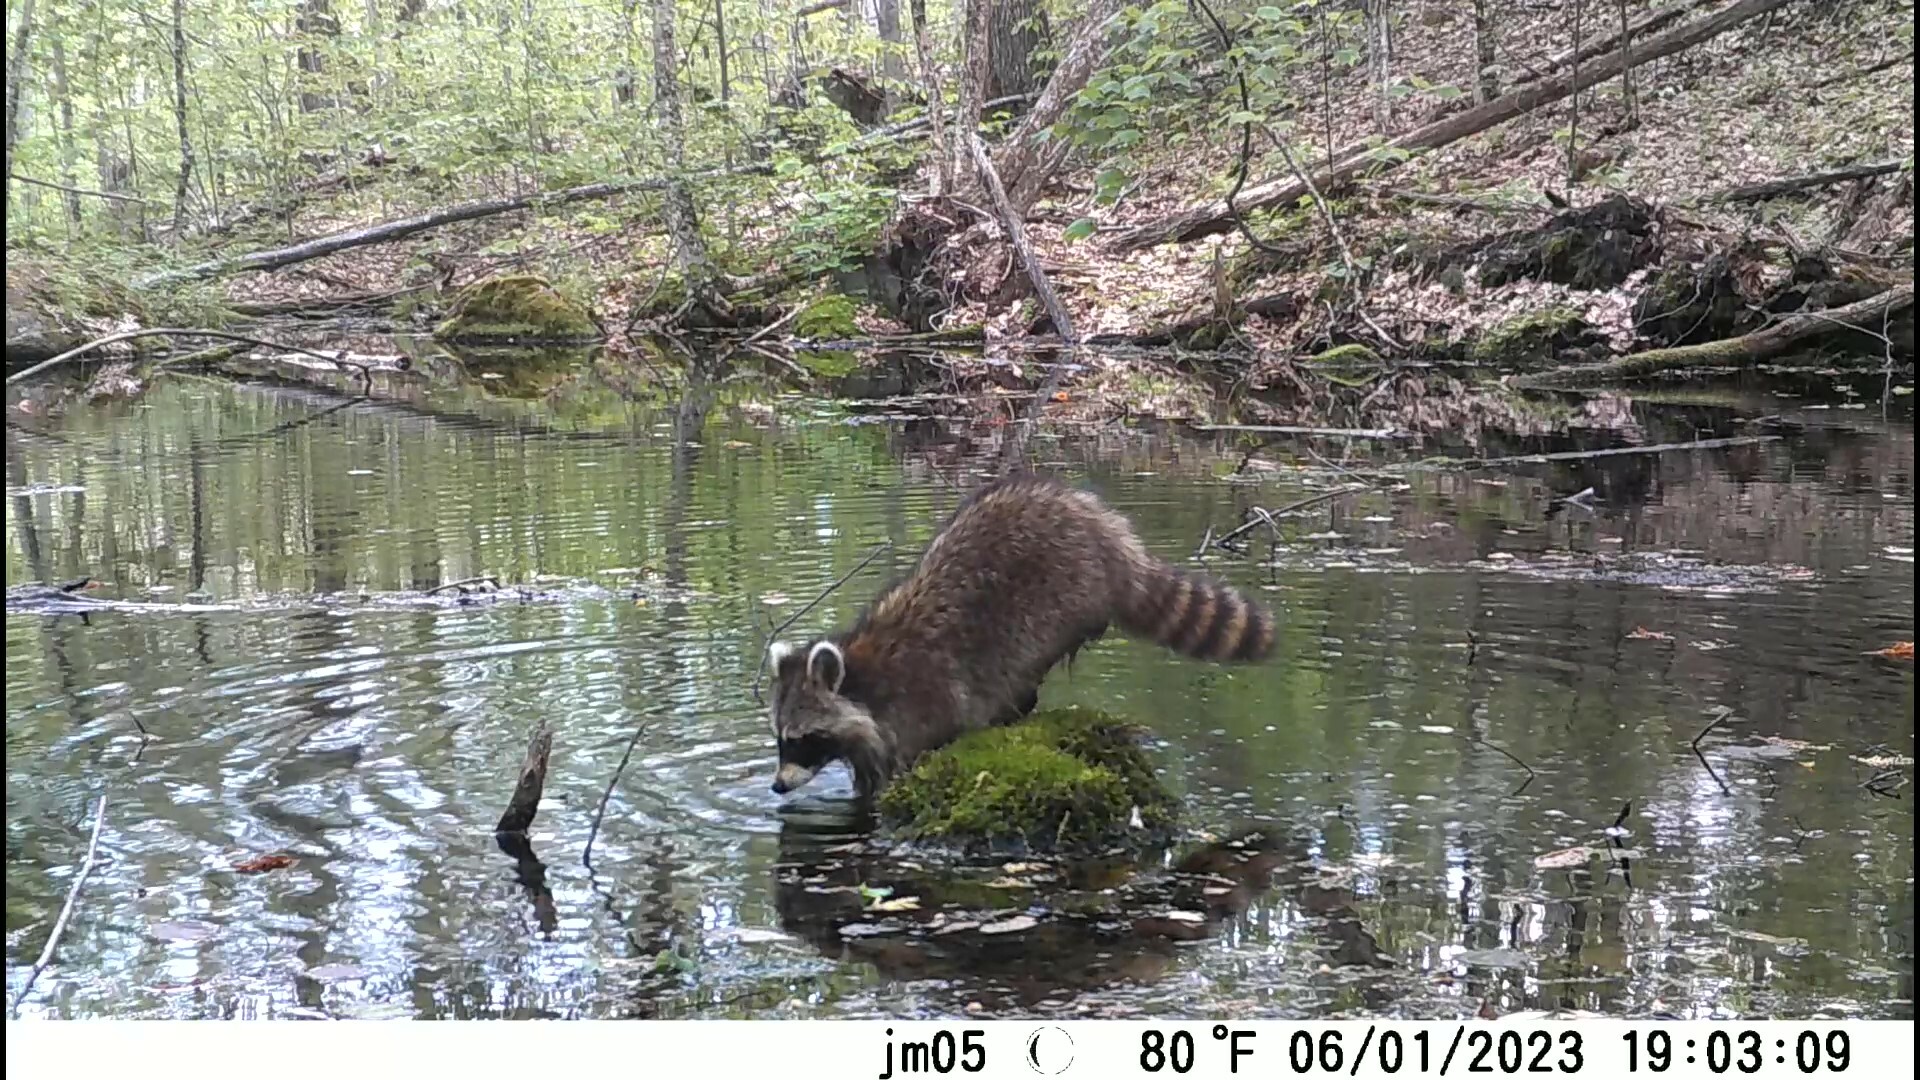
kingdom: Animalia
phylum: Chordata
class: Mammalia
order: Carnivora
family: Procyonidae
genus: Procyon
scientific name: Procyon lotor
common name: Raccoon
